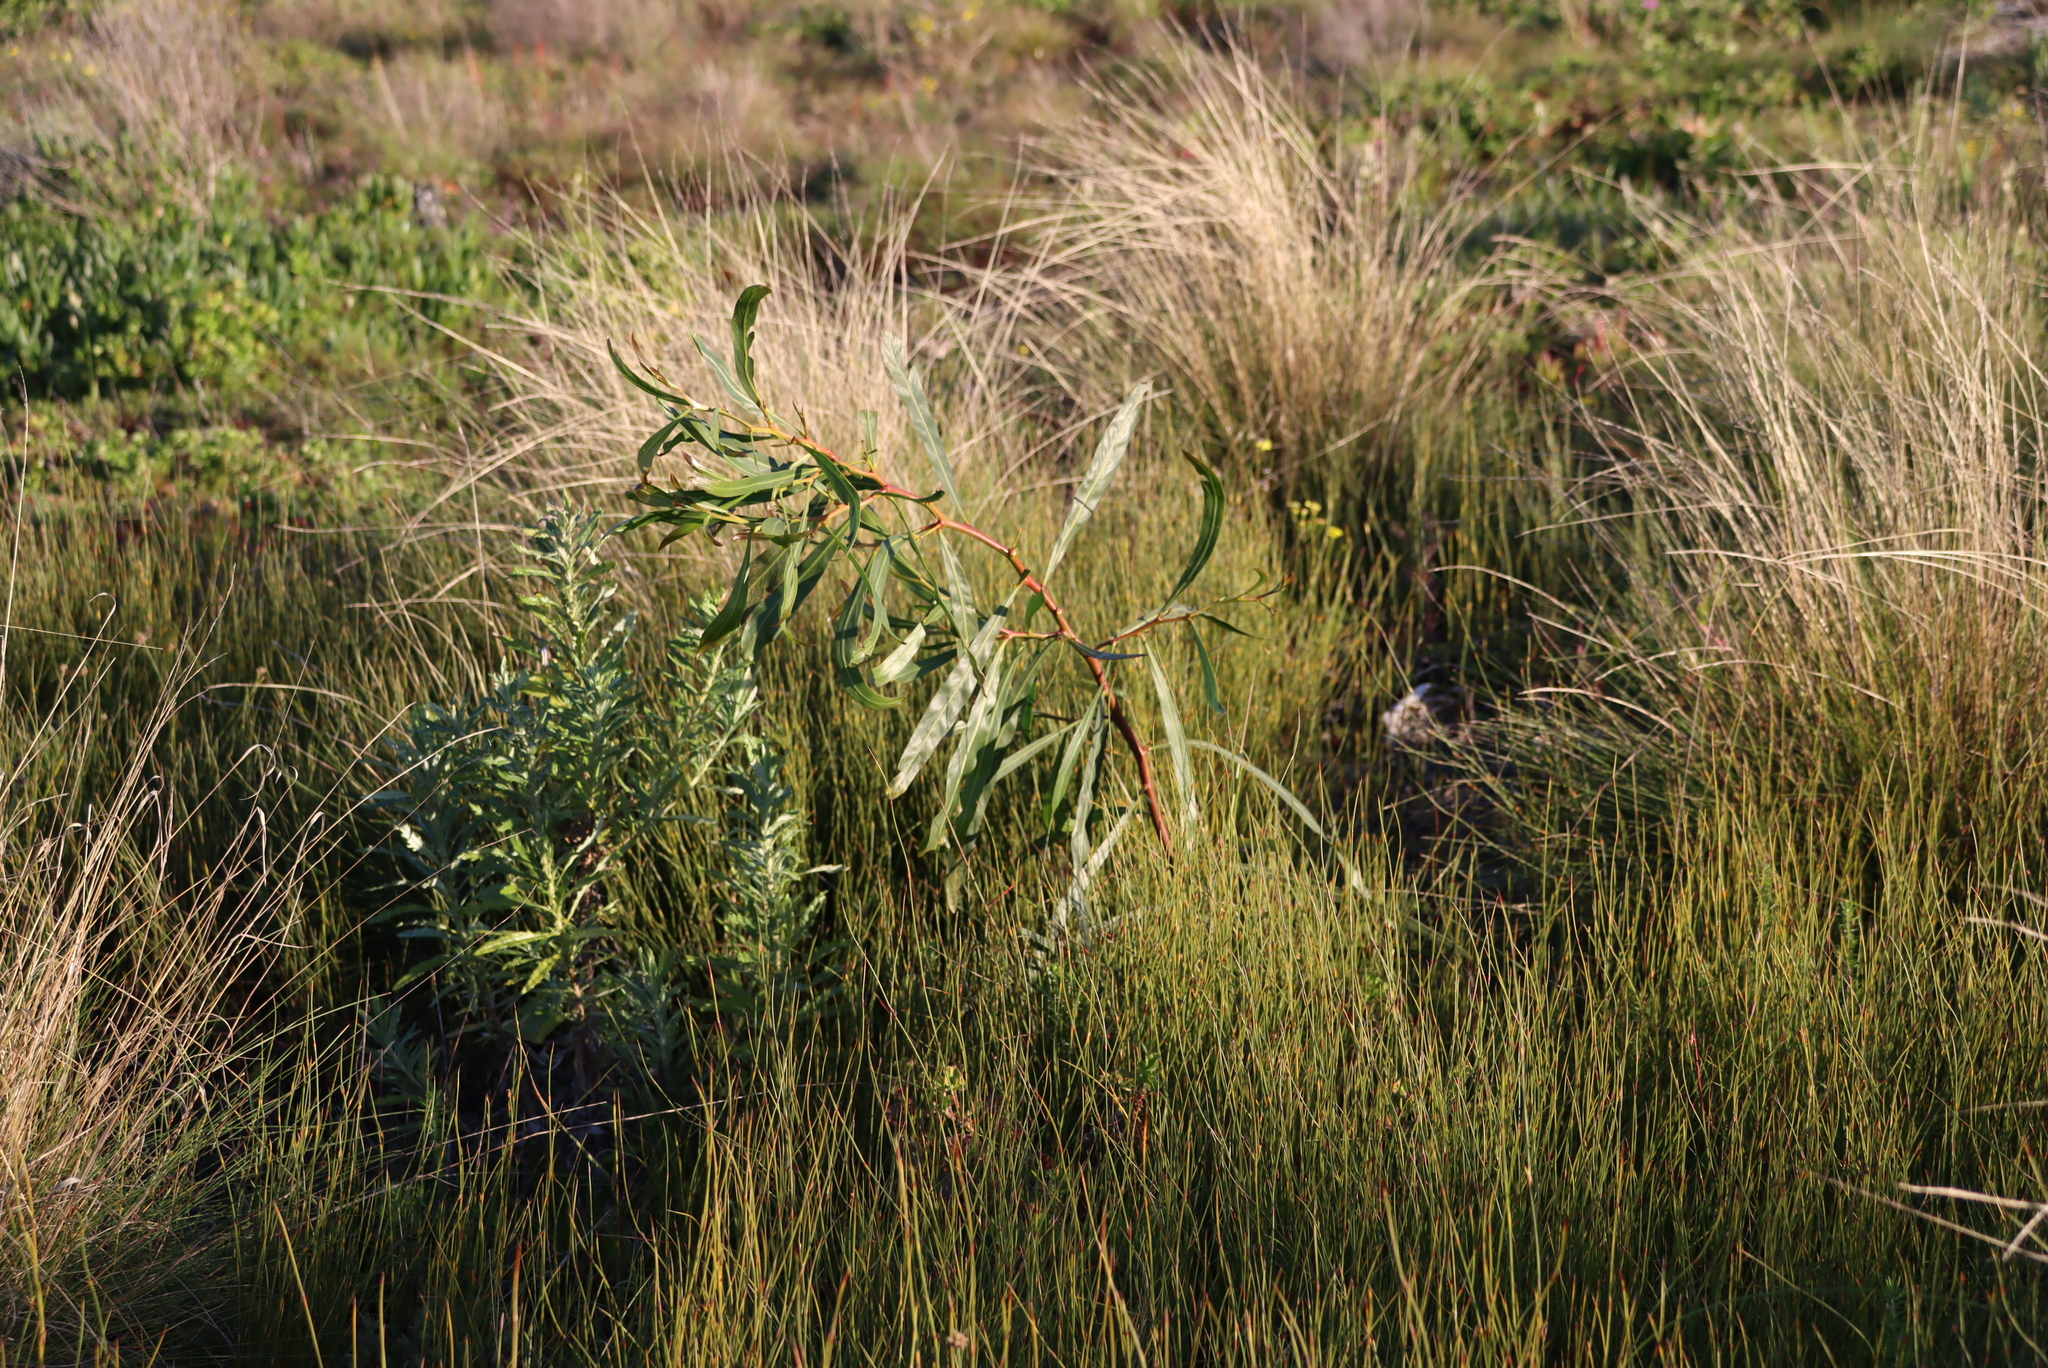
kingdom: Plantae
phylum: Tracheophyta
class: Magnoliopsida
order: Fabales
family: Fabaceae
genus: Acacia
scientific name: Acacia saligna
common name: Orange wattle
